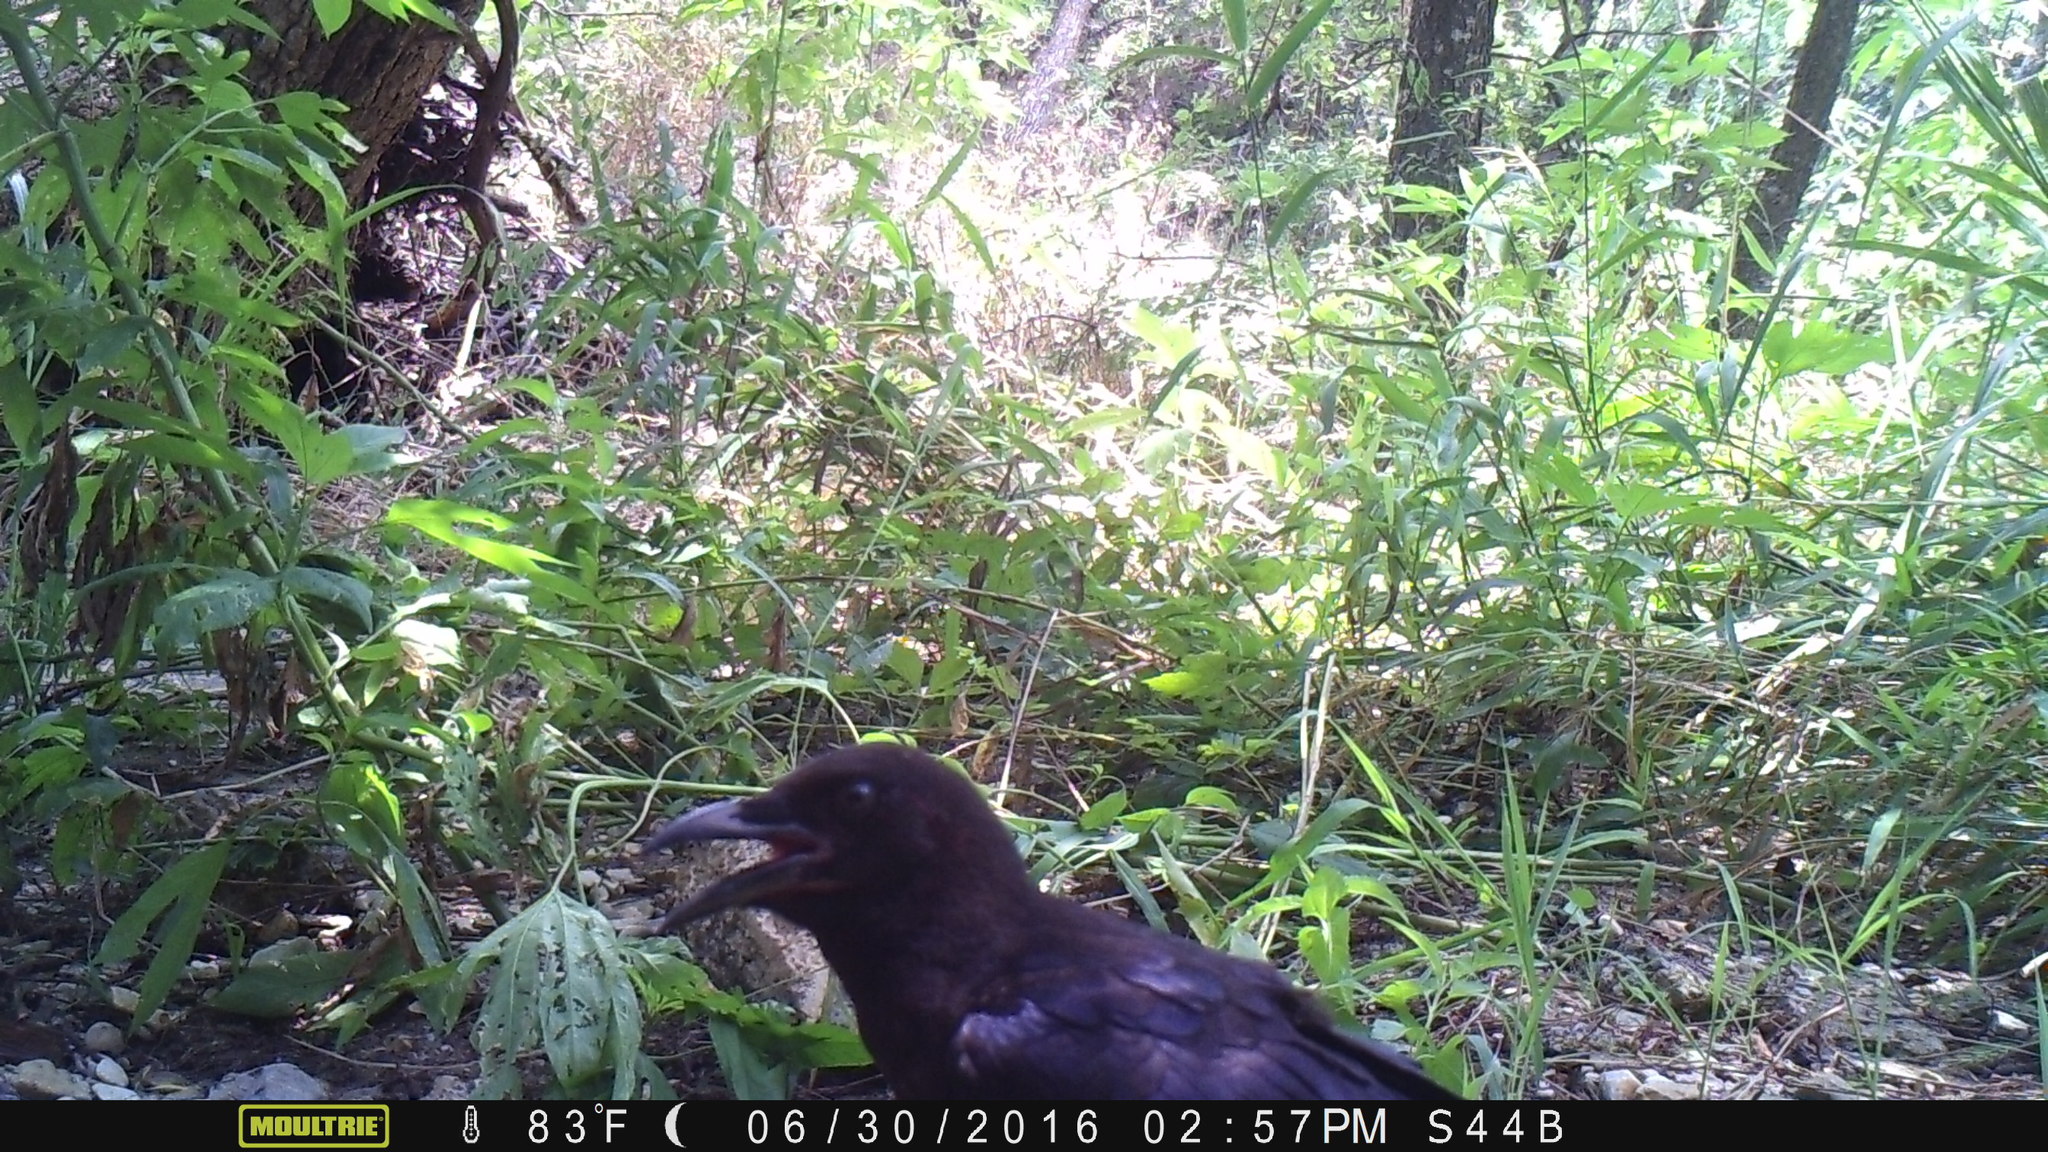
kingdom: Animalia
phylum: Chordata
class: Aves
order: Passeriformes
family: Corvidae
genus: Corvus
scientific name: Corvus brachyrhynchos
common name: American crow
